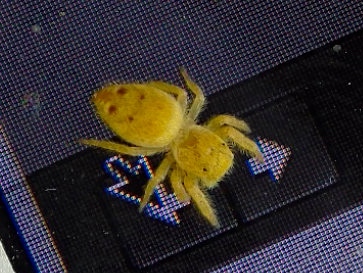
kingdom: Animalia
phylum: Arthropoda
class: Arachnida
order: Araneae
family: Salticidae
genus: Phidippus
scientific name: Phidippus tux
